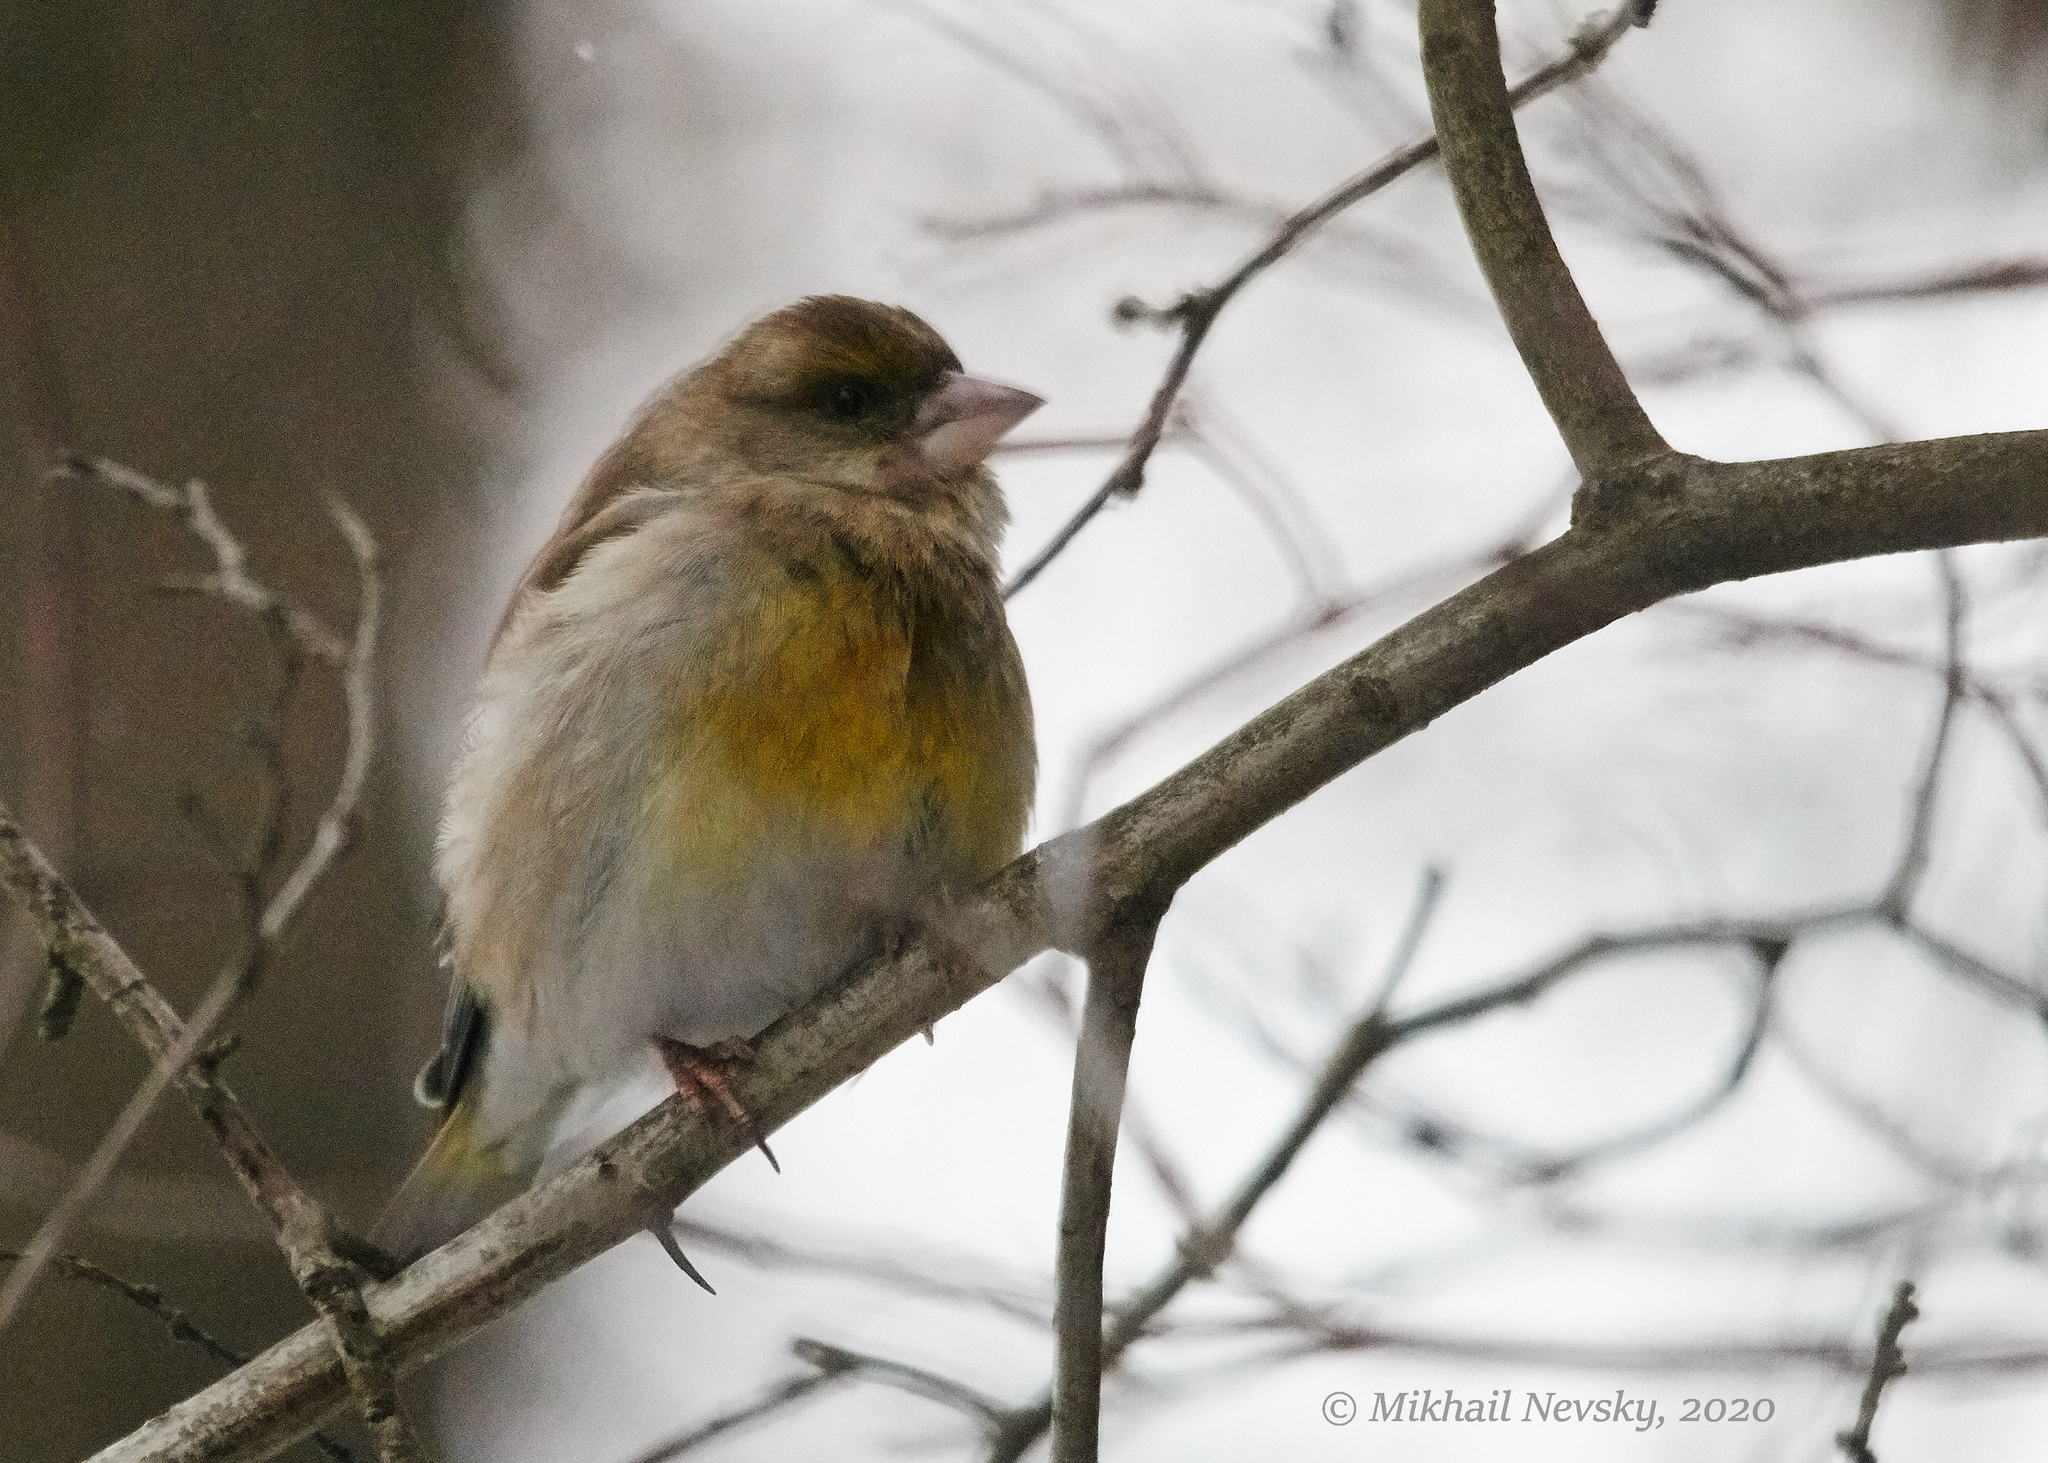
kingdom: Plantae
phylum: Tracheophyta
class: Liliopsida
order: Poales
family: Poaceae
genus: Chloris
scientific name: Chloris chloris
